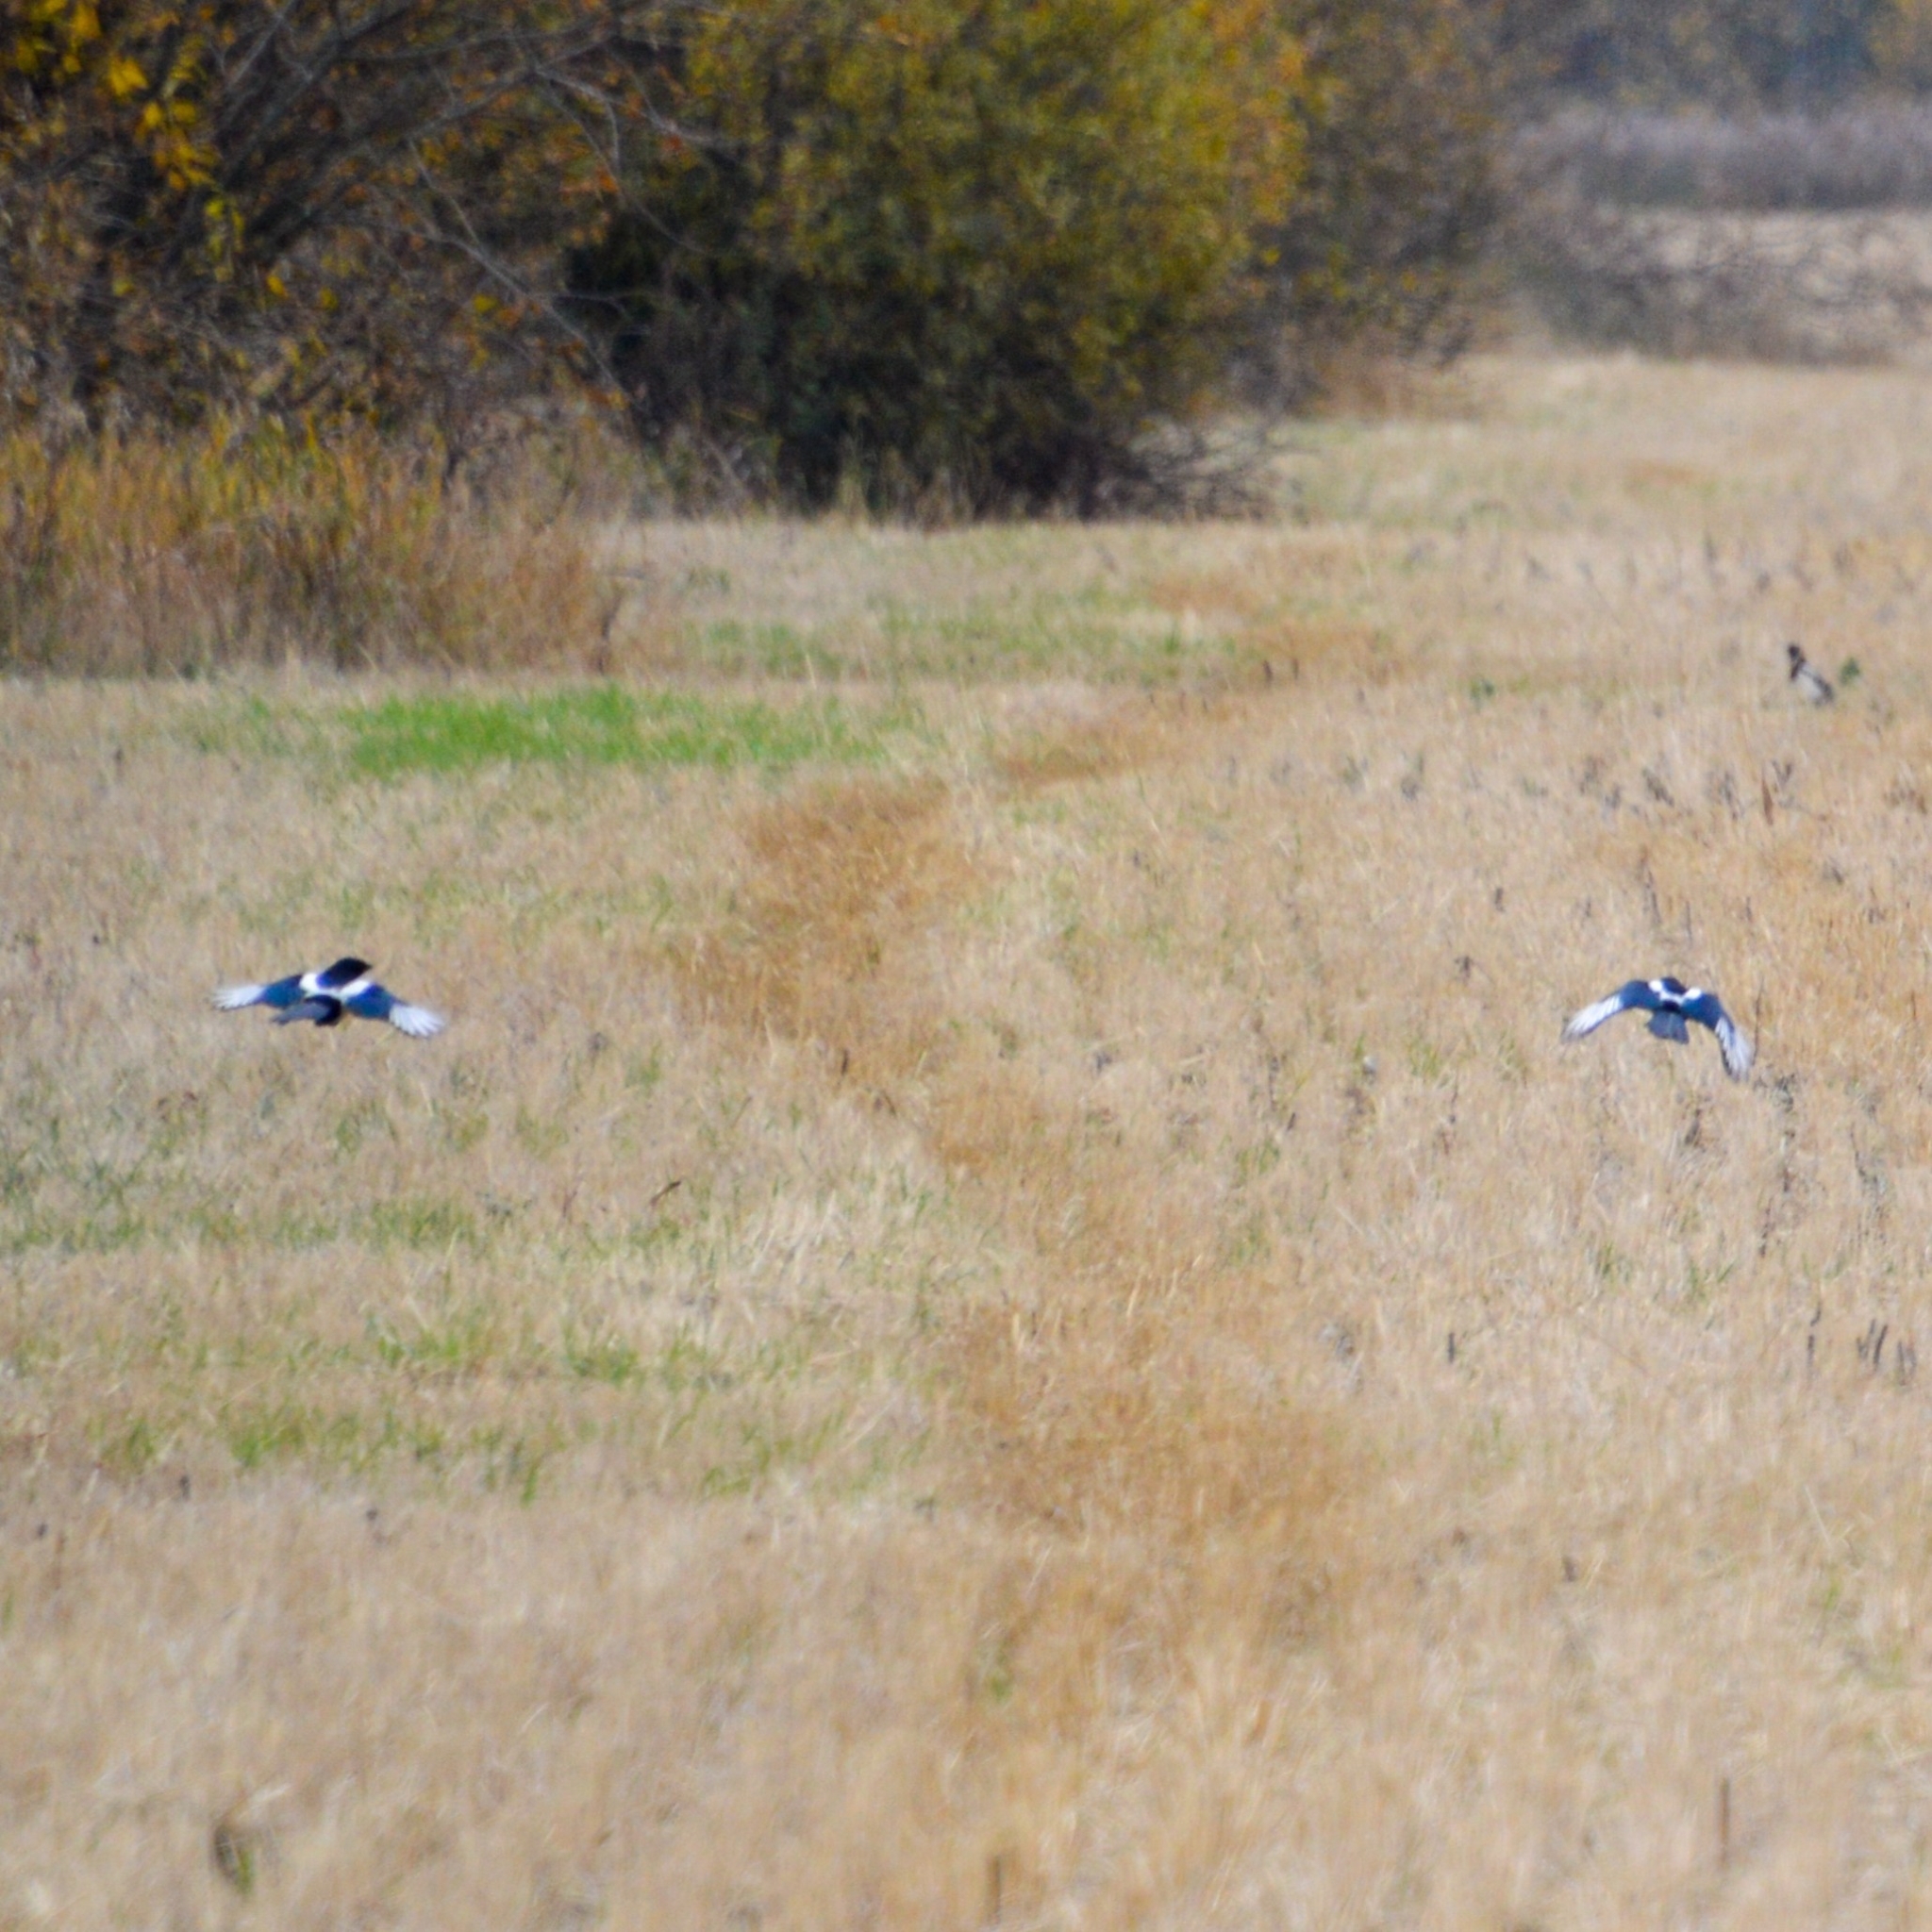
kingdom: Animalia
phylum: Chordata
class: Aves
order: Passeriformes
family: Corvidae
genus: Pica
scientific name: Pica pica
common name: Eurasian magpie
